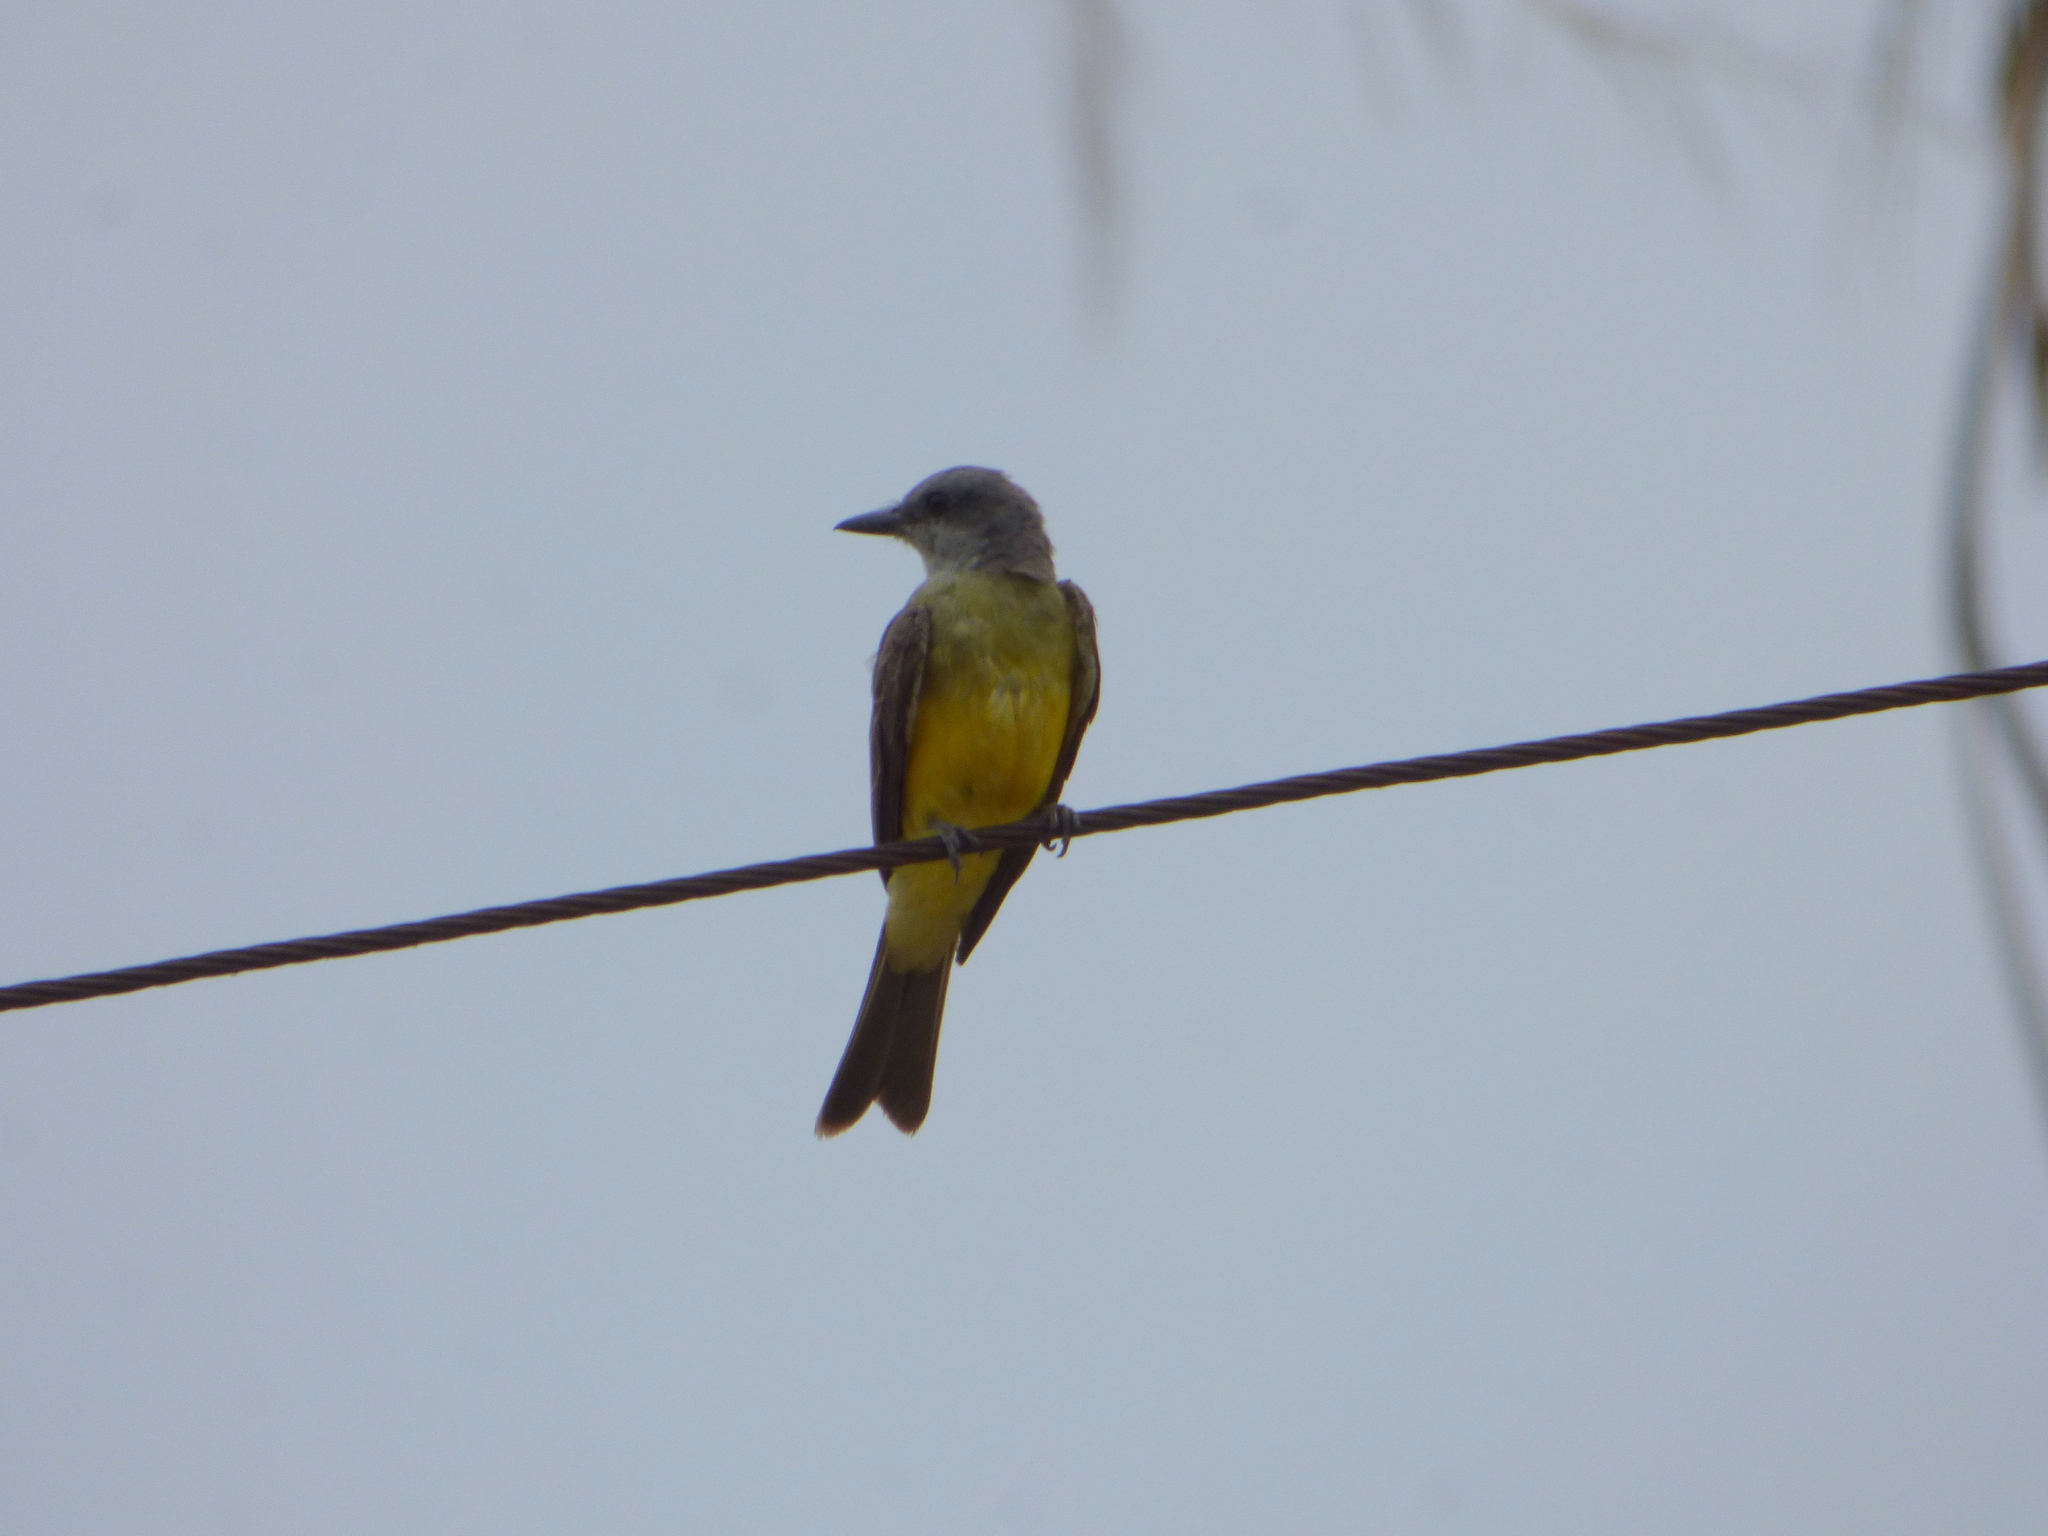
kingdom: Animalia
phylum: Chordata
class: Aves
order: Passeriformes
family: Tyrannidae
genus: Tyrannus
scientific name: Tyrannus melancholicus
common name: Tropical kingbird
